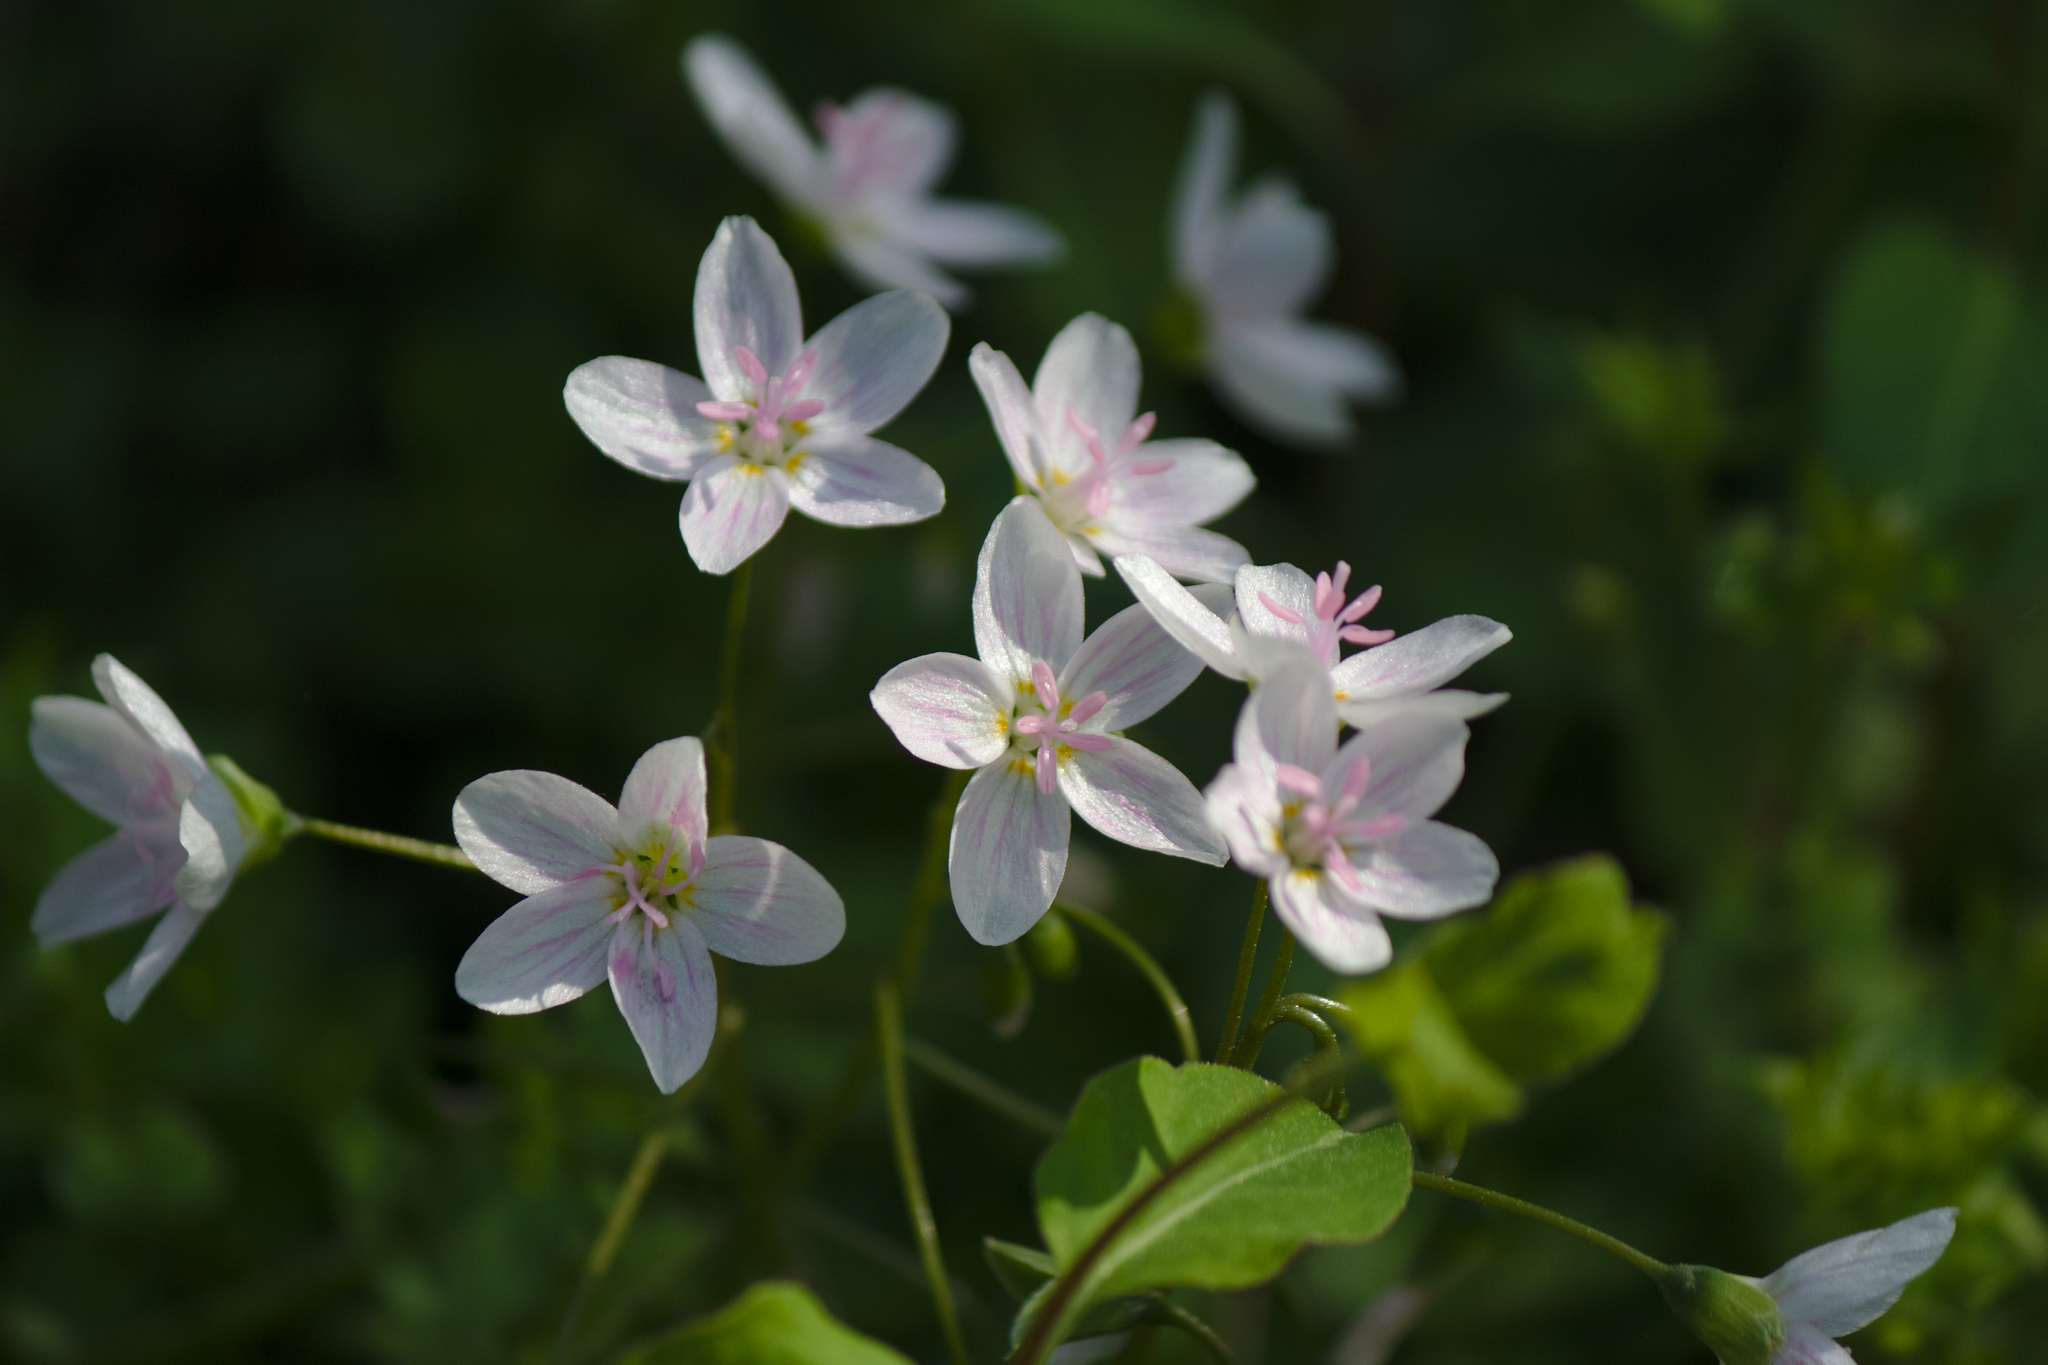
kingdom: Plantae
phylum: Tracheophyta
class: Magnoliopsida
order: Caryophyllales
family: Montiaceae
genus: Claytonia
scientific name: Claytonia virginica
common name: Virginia springbeauty
